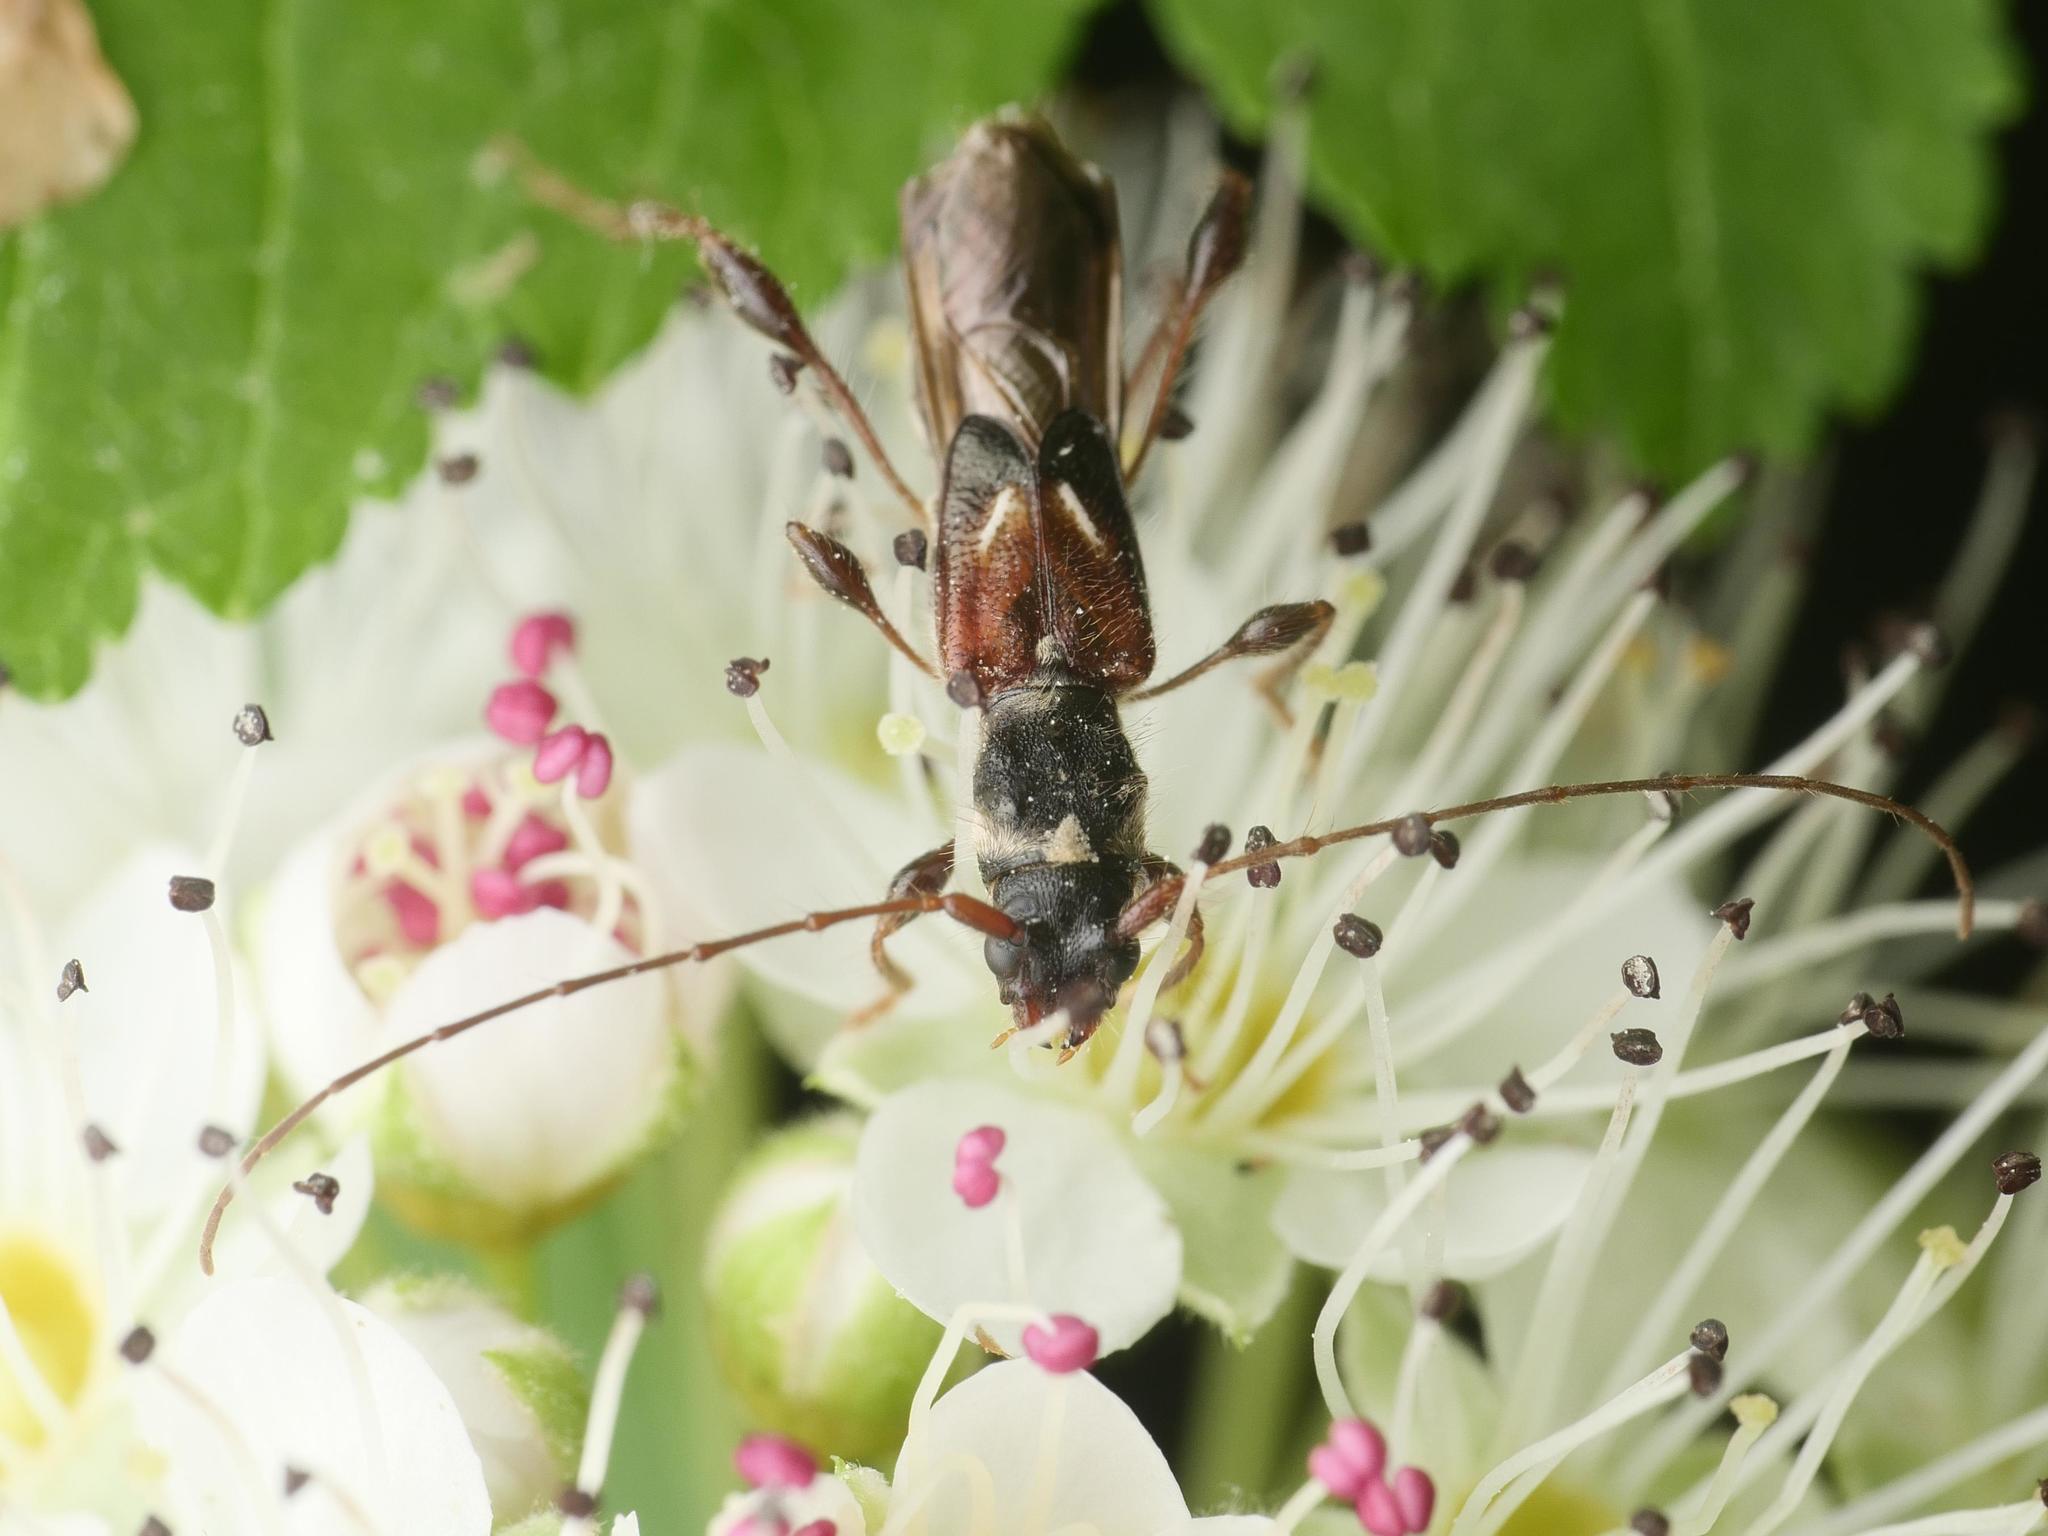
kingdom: Animalia
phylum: Arthropoda
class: Insecta
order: Coleoptera
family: Cerambycidae
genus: Molorchus
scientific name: Molorchus minor
